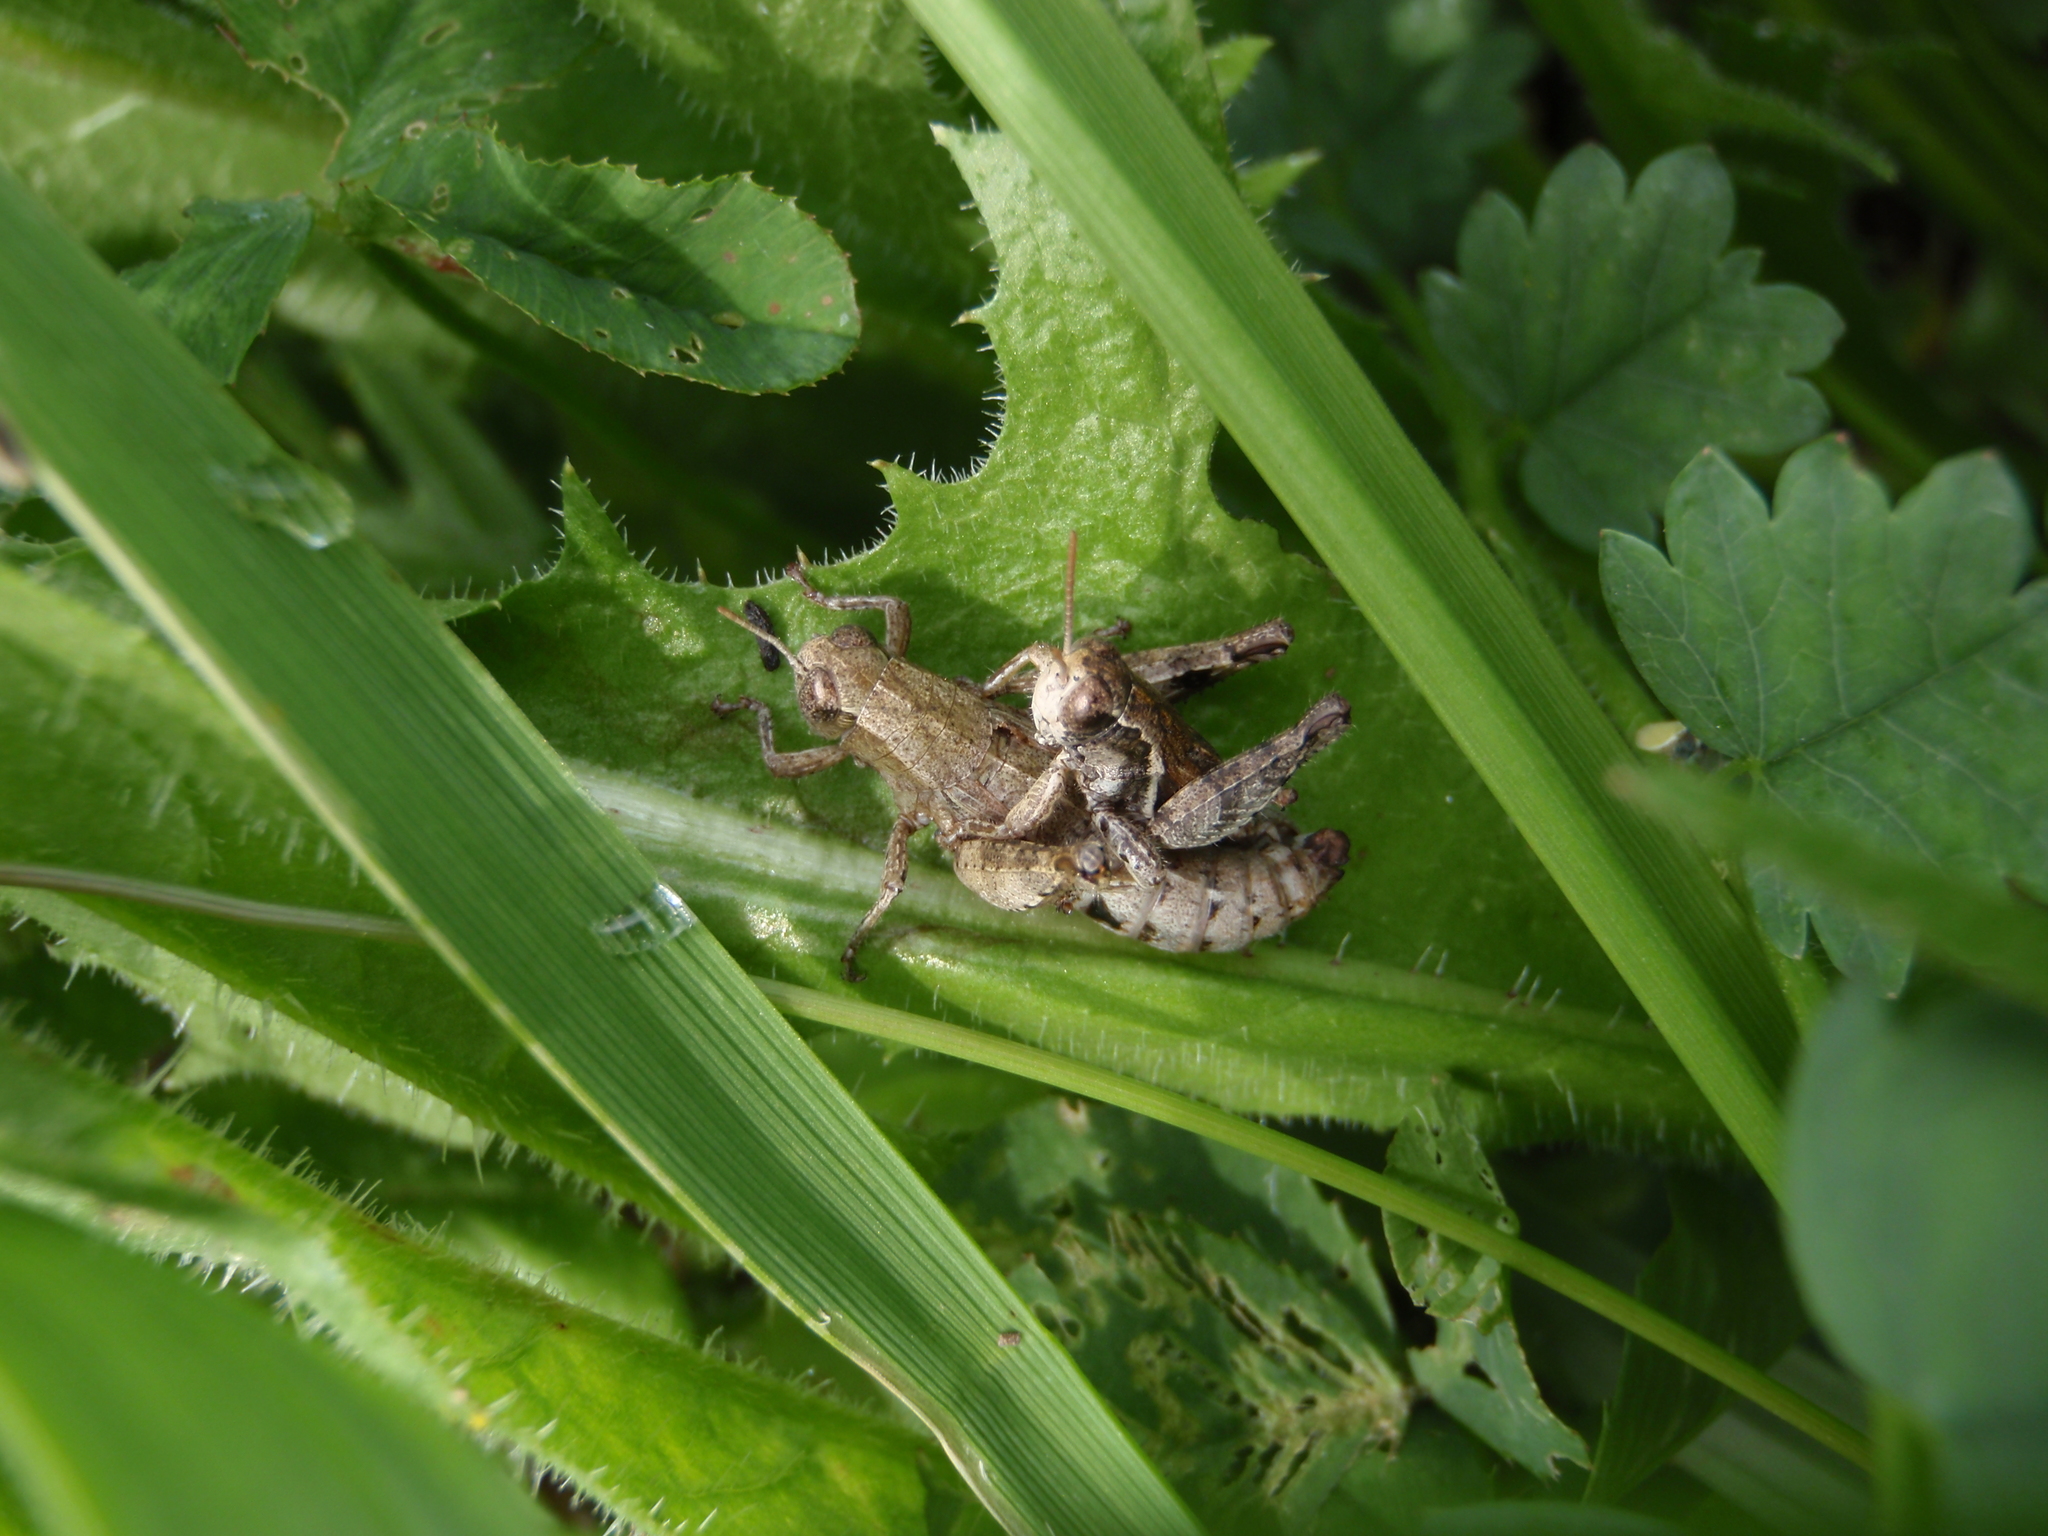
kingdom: Animalia
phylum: Arthropoda
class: Insecta
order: Orthoptera
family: Acrididae
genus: Pezotettix
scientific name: Pezotettix giornae
